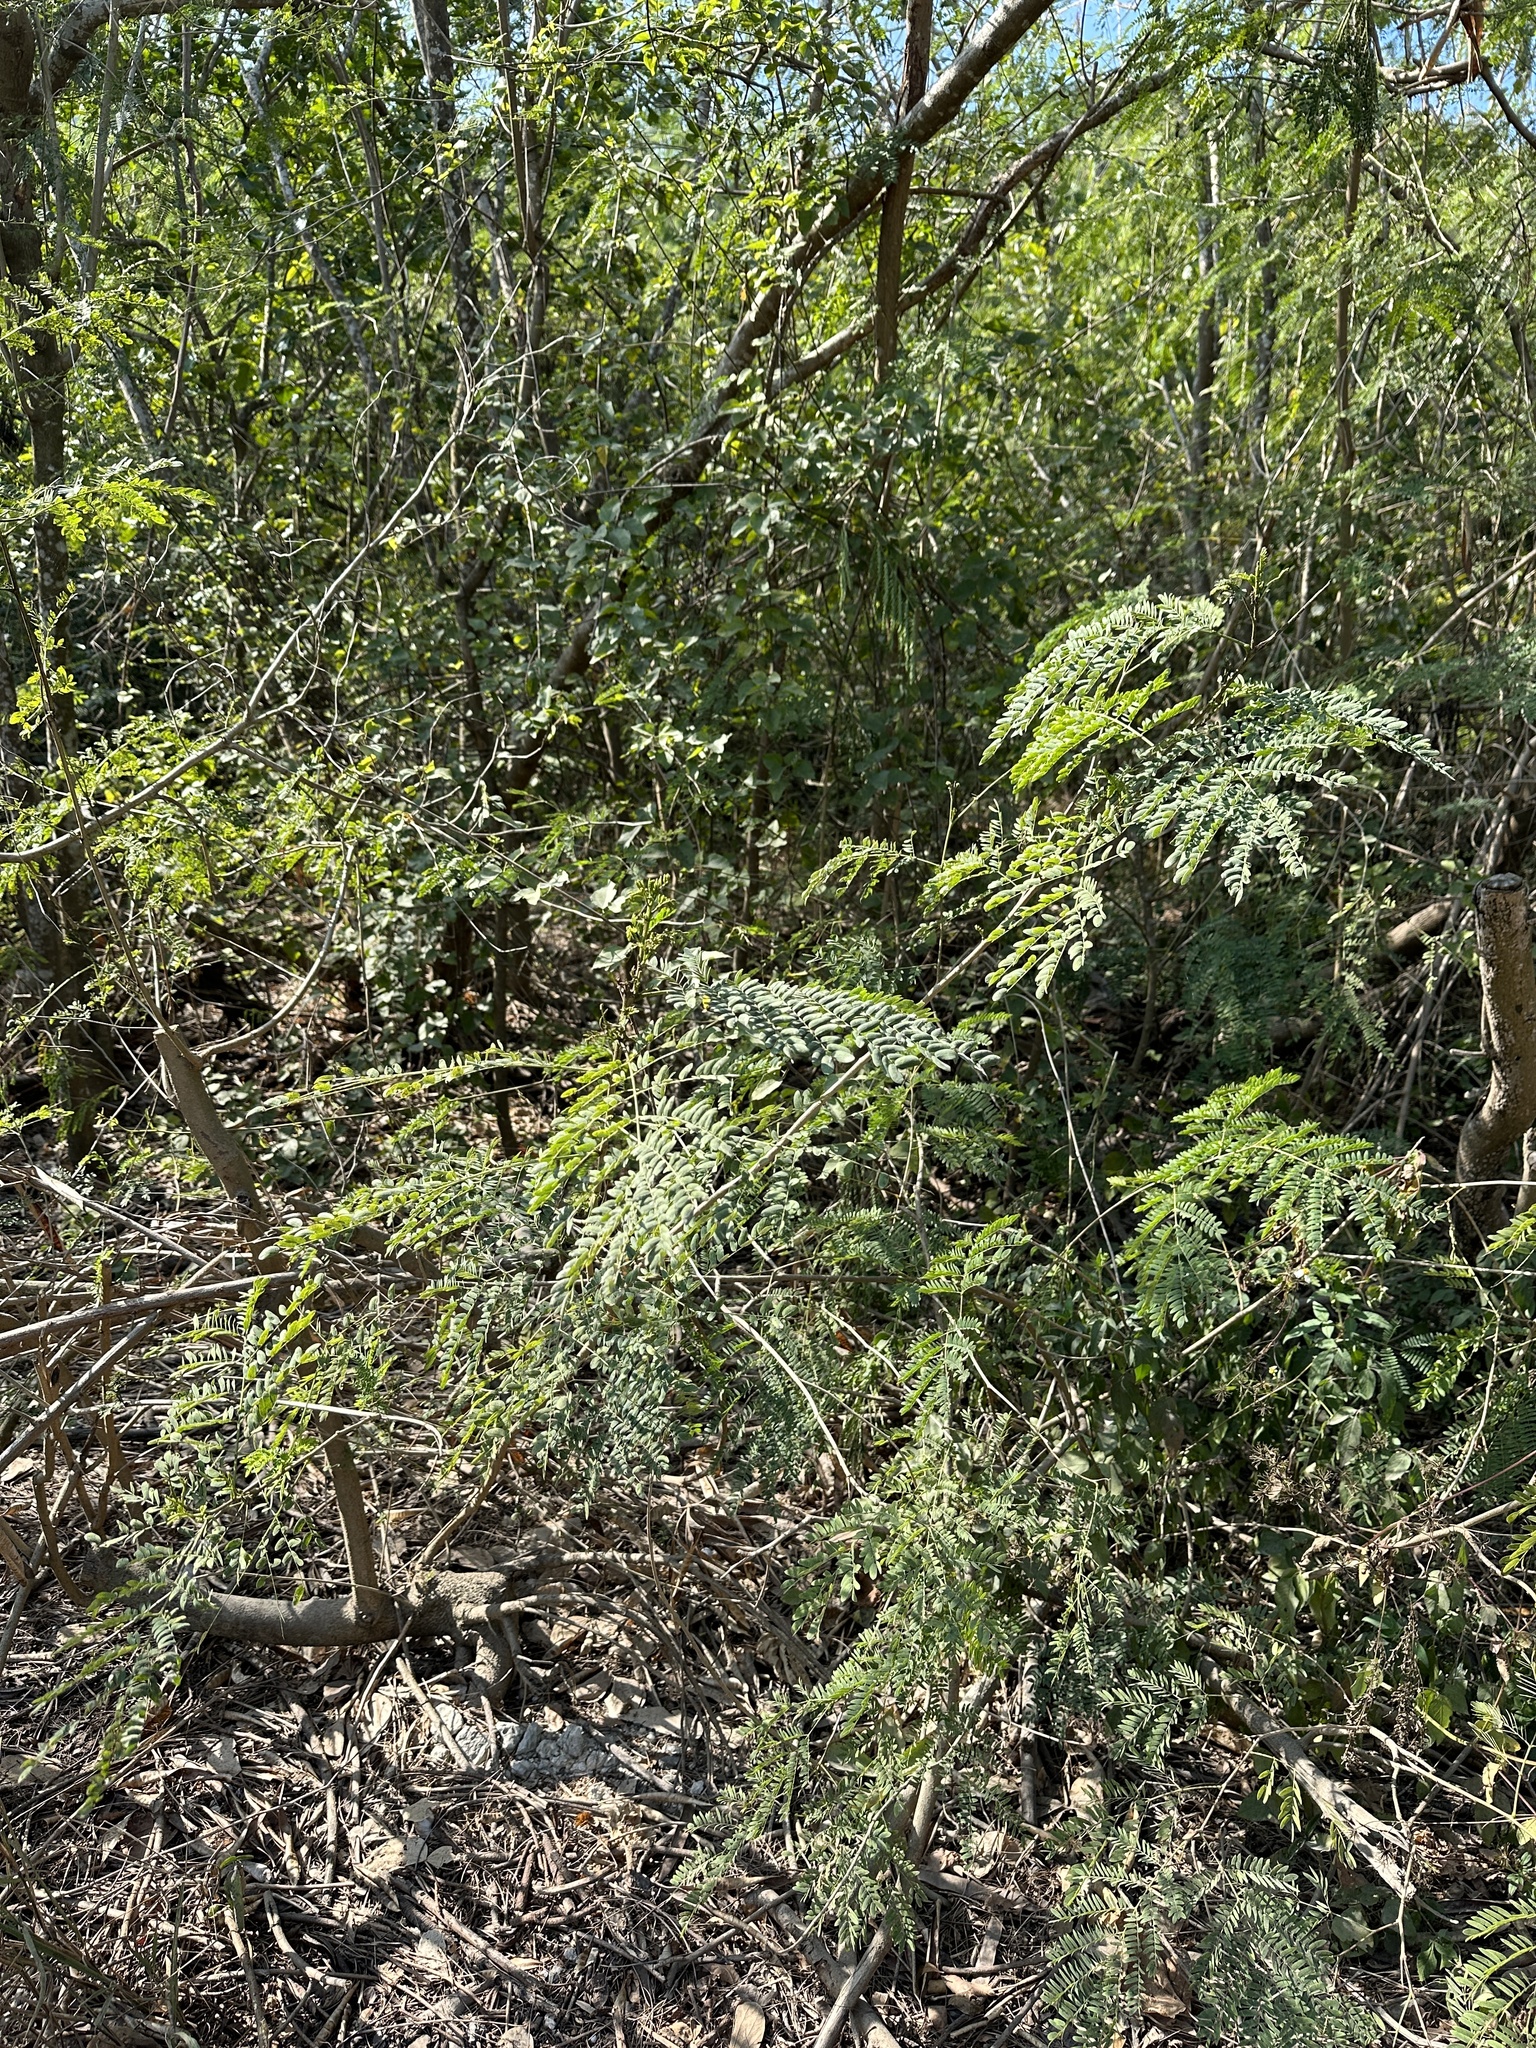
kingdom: Plantae
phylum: Tracheophyta
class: Magnoliopsida
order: Fabales
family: Fabaceae
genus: Leucaena
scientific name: Leucaena leucocephala
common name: White leadtree
